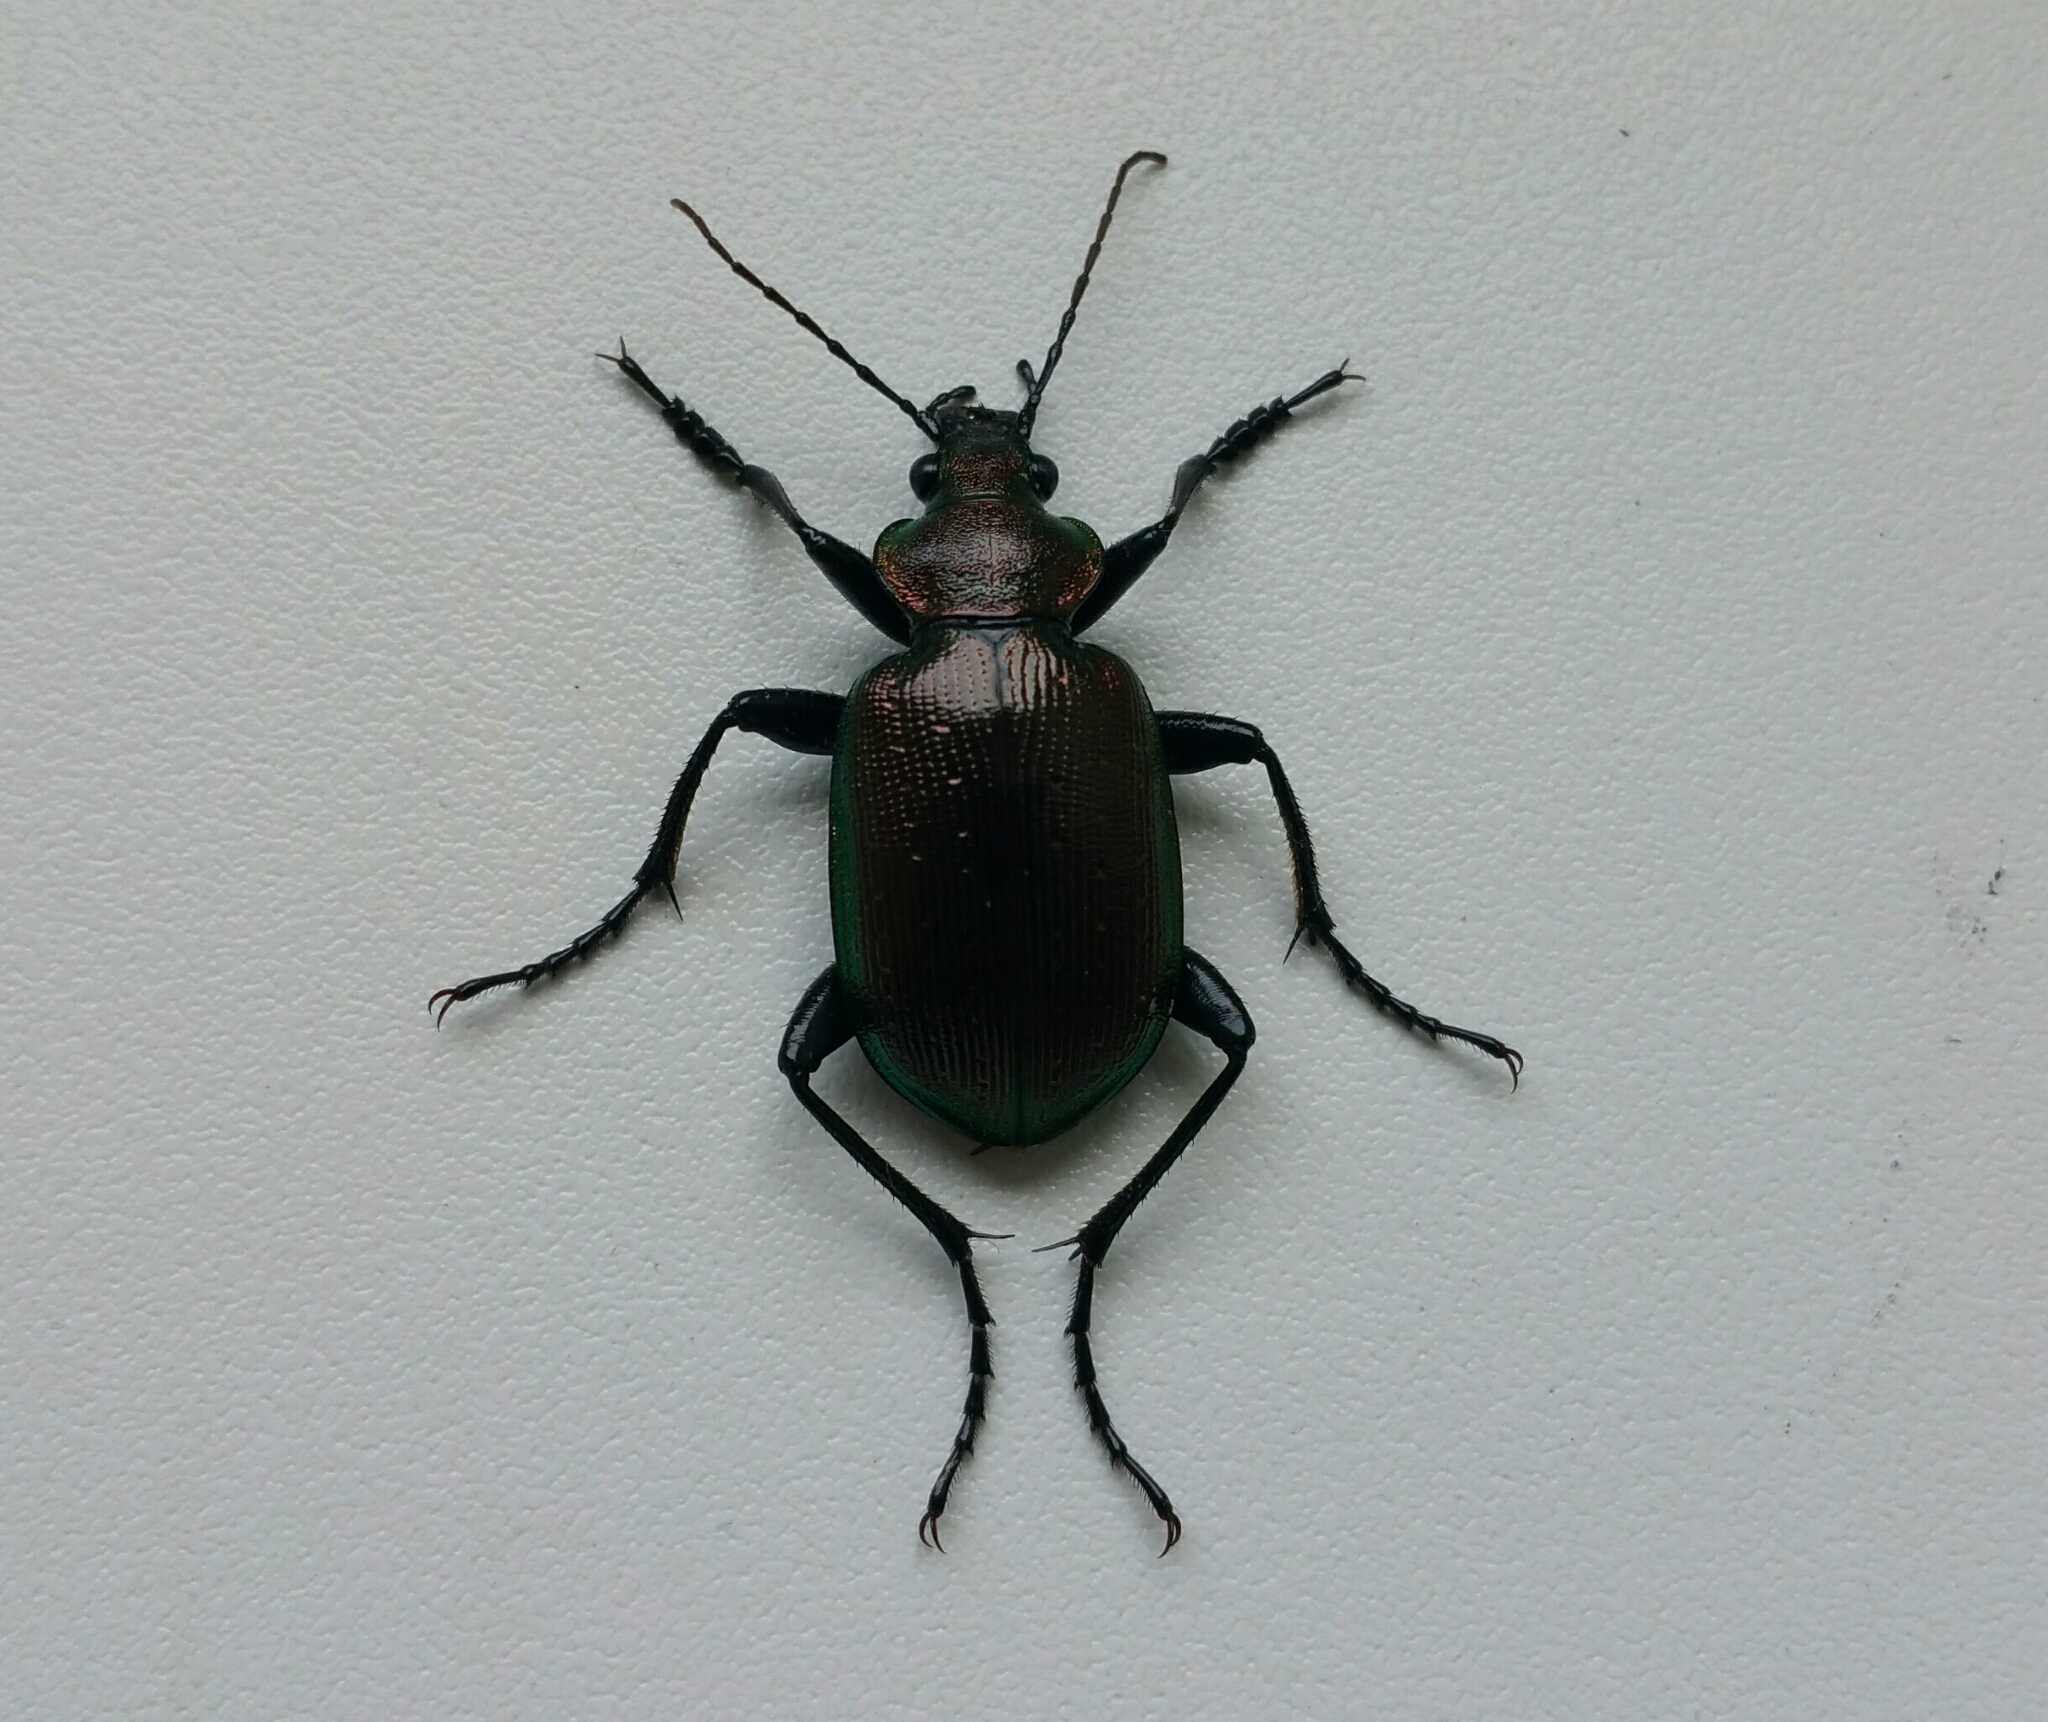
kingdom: Animalia
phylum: Arthropoda
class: Insecta
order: Coleoptera
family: Carabidae
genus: Calosoma
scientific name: Calosoma inquisitor
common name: Caterpillar-hunter
